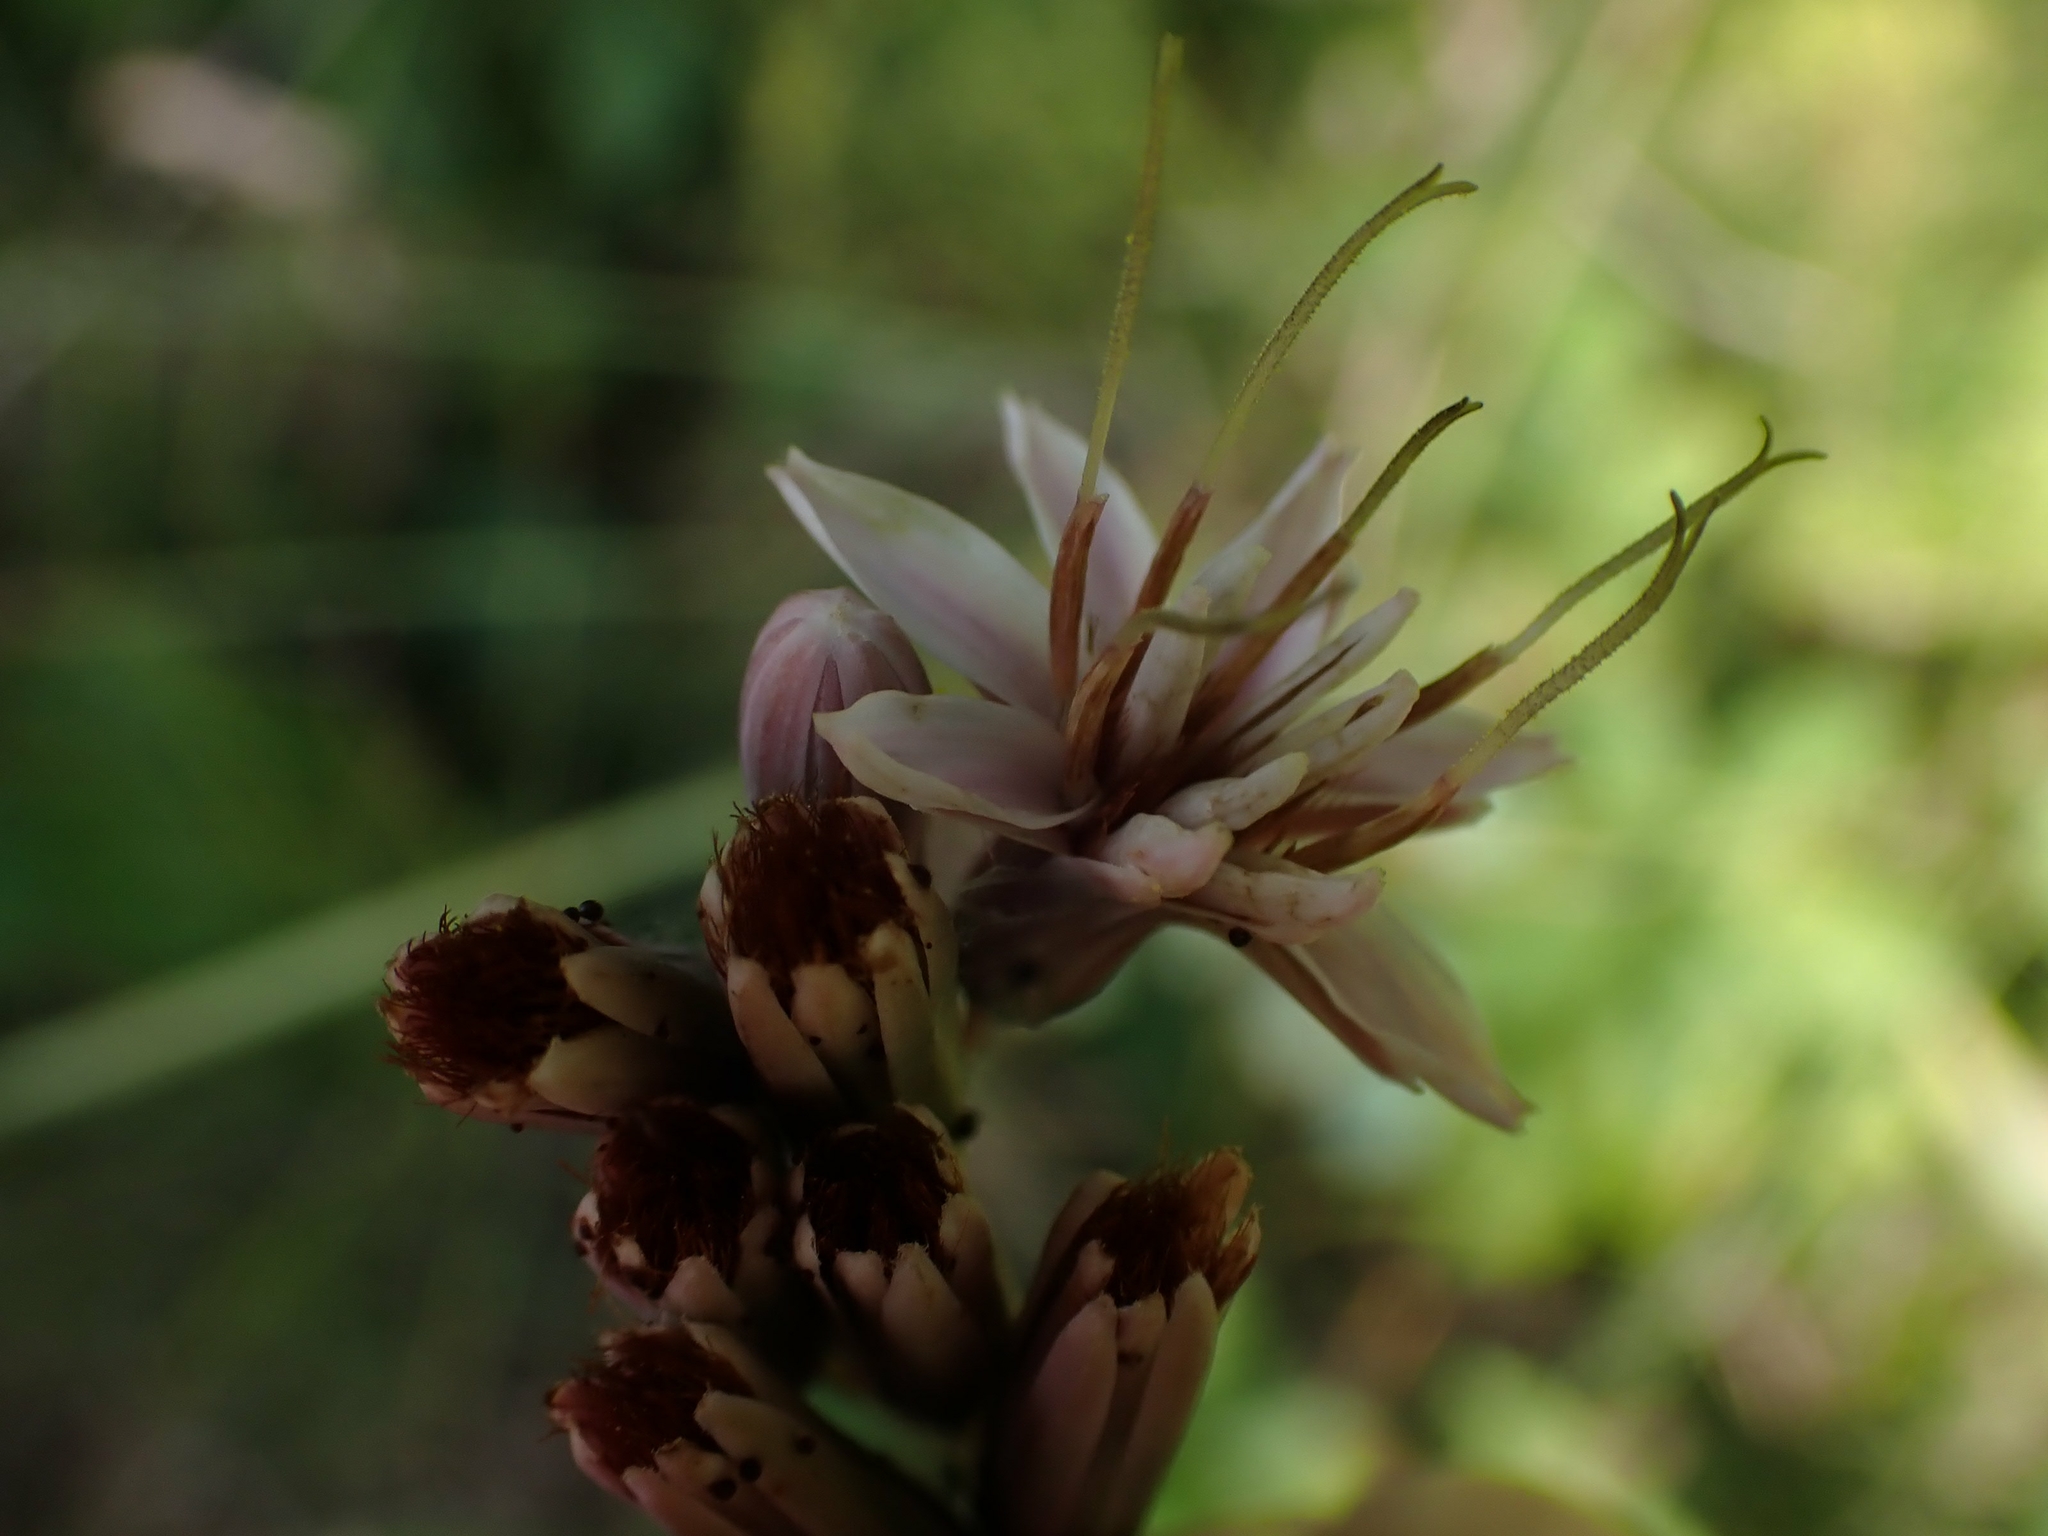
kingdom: Plantae
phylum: Tracheophyta
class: Magnoliopsida
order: Asterales
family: Asteraceae
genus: Nabalus
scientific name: Nabalus albus
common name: White rattlesnakeroot
